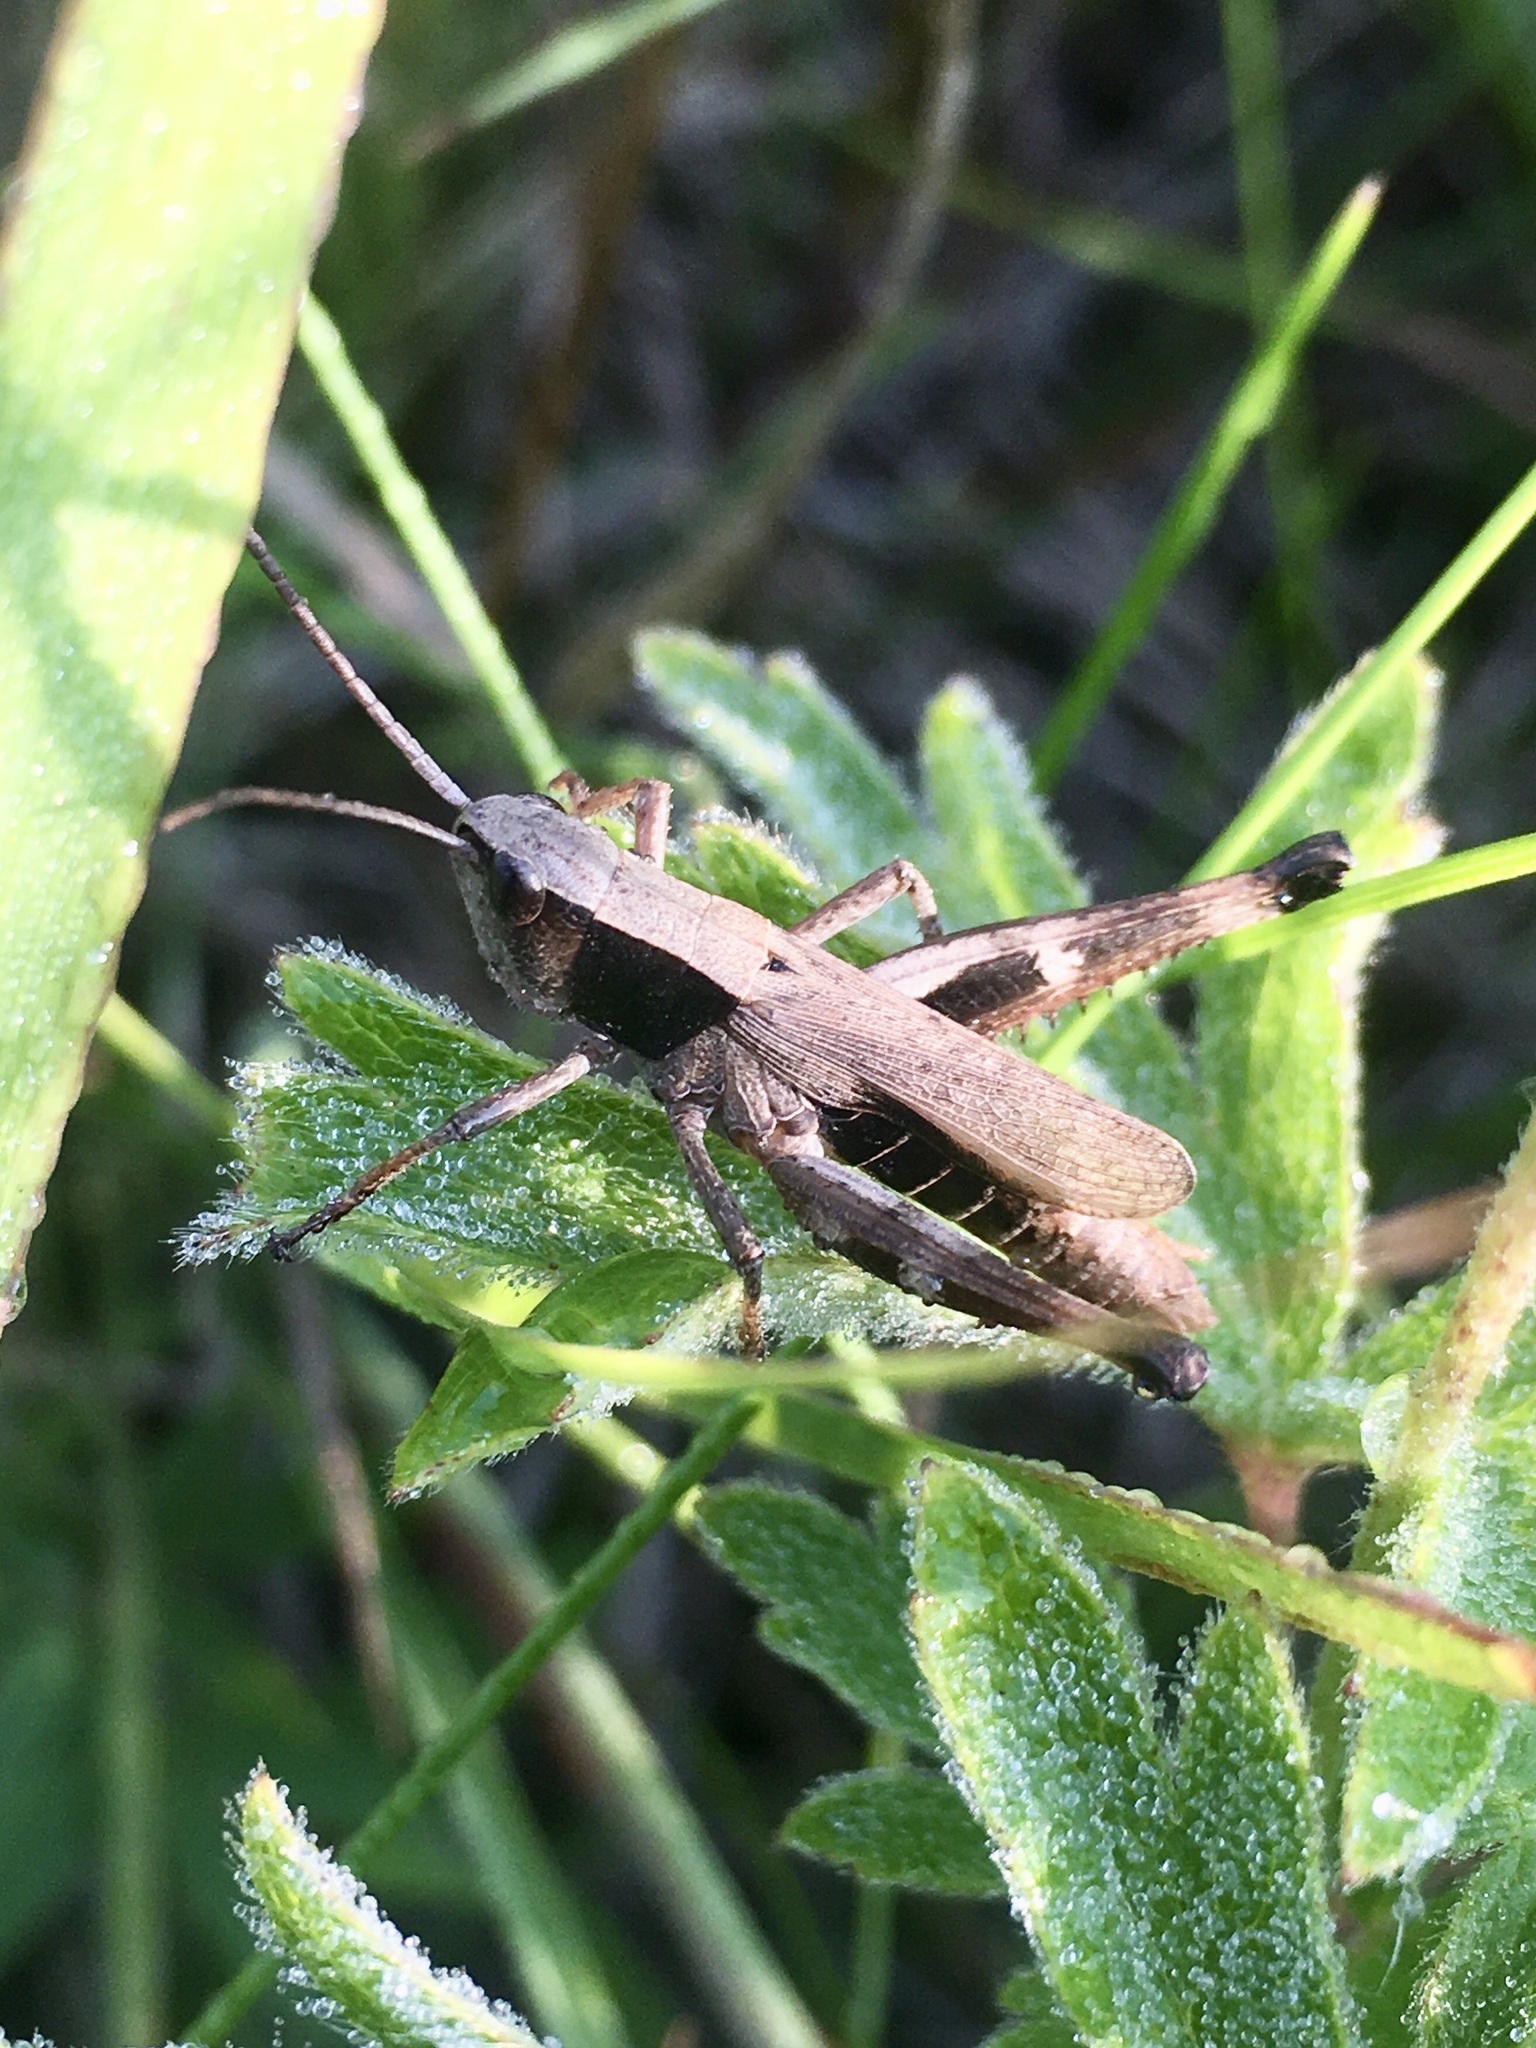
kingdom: Animalia
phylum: Arthropoda
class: Insecta
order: Orthoptera
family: Acrididae
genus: Chloealtis
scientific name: Chloealtis conspersa
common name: Sprinkled broad-winged grasshopper
